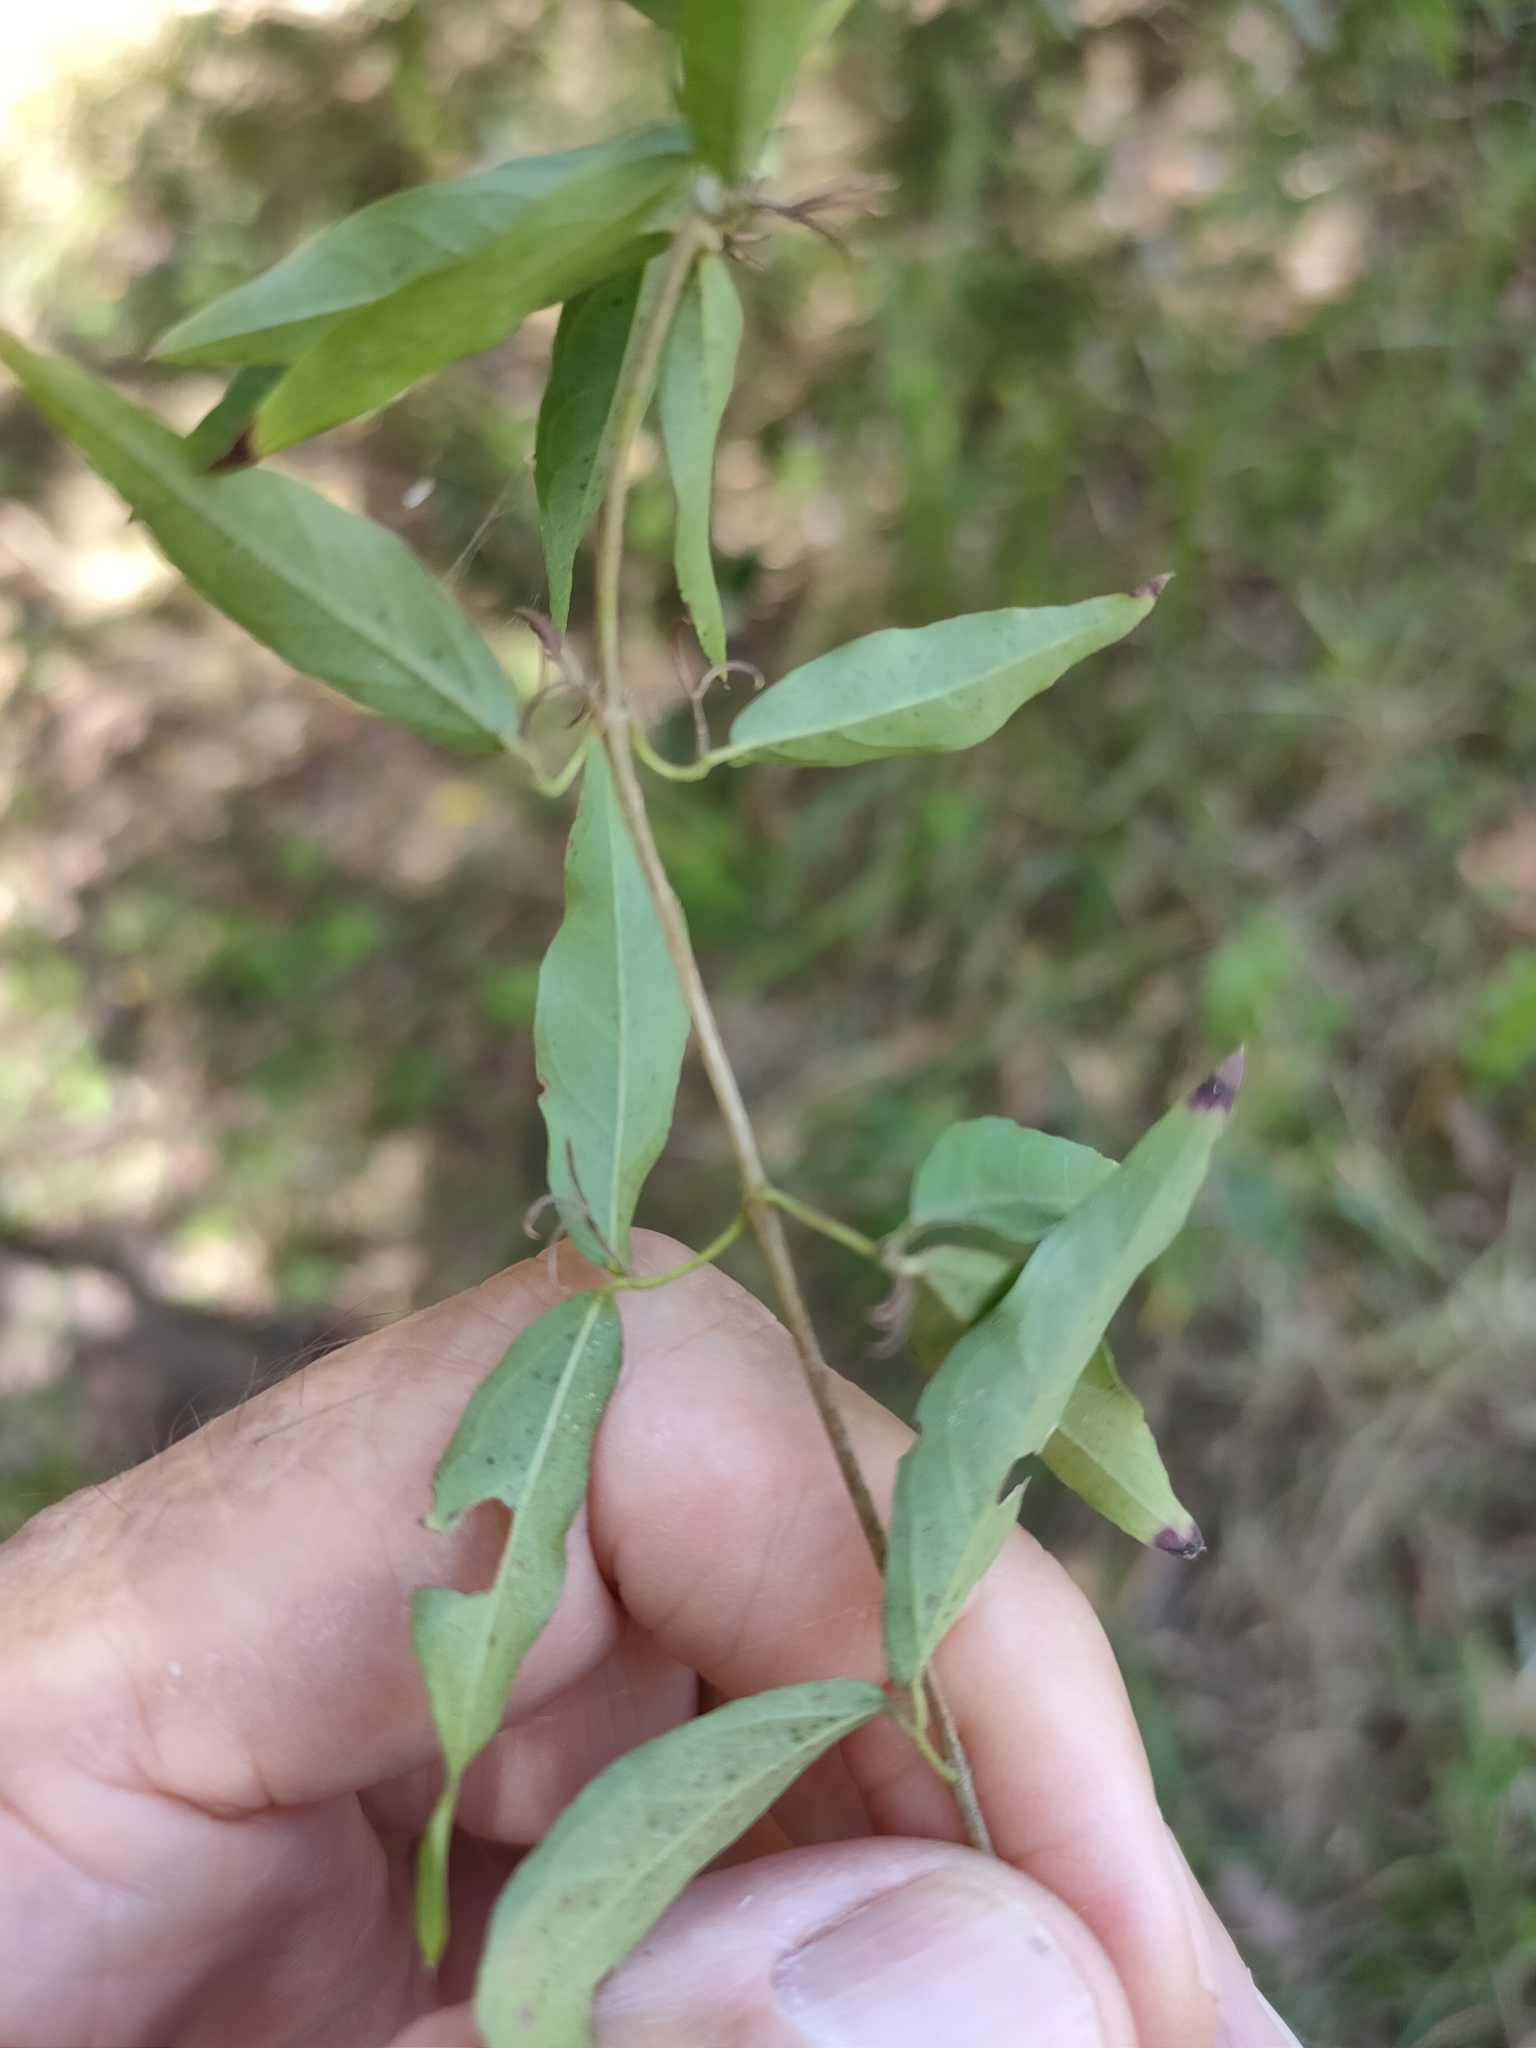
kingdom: Plantae
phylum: Tracheophyta
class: Magnoliopsida
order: Lamiales
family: Bignoniaceae
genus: Dolichandra
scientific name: Dolichandra unguis-cati
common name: Catclaw vine
